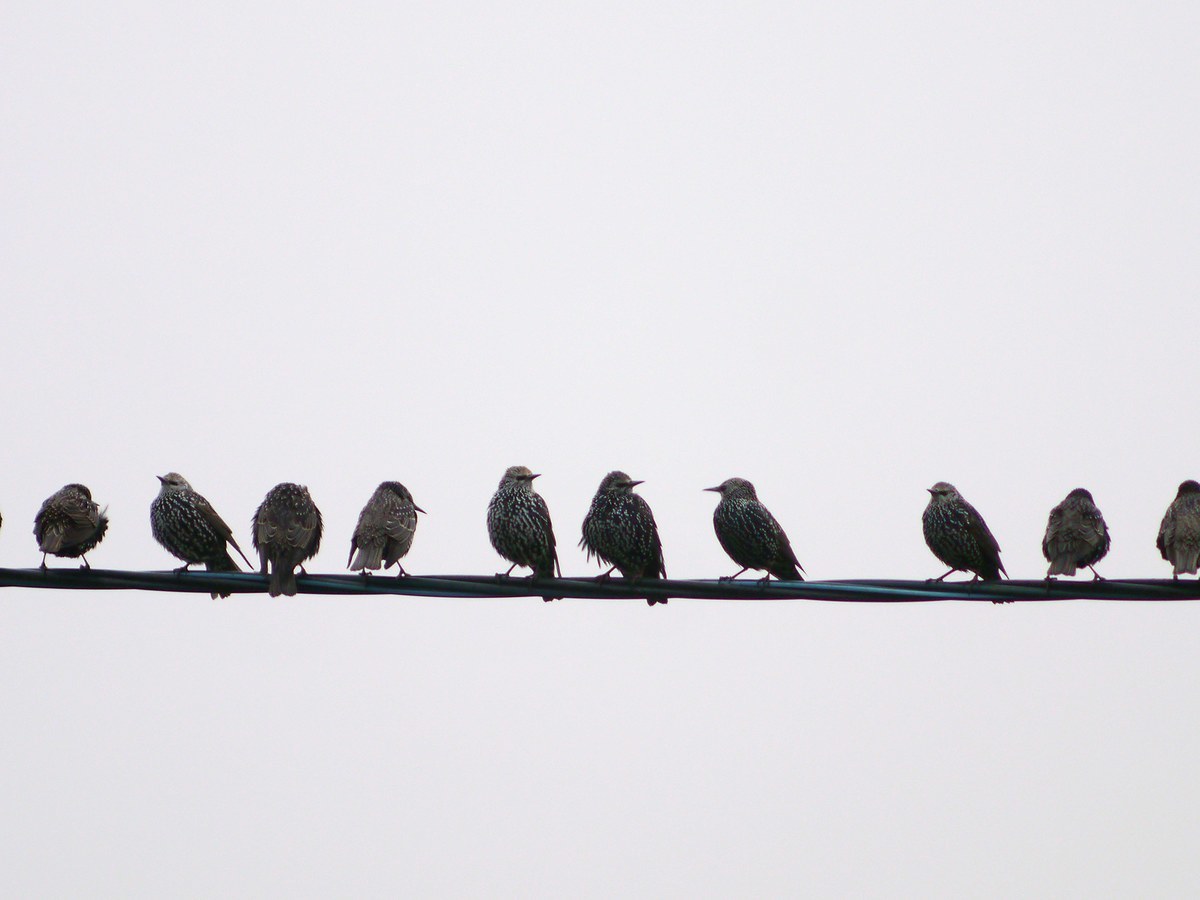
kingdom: Animalia
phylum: Chordata
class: Aves
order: Passeriformes
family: Sturnidae
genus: Sturnus
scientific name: Sturnus vulgaris
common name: Common starling
